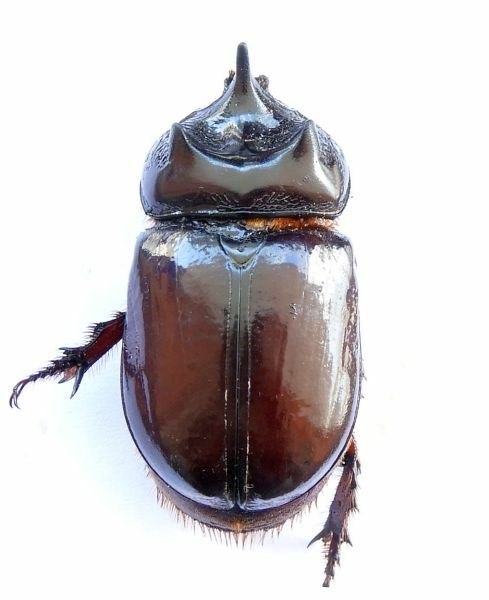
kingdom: Animalia
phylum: Arthropoda
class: Insecta
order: Coleoptera
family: Scarabaeidae
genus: Strategus
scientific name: Strategus aloeus
